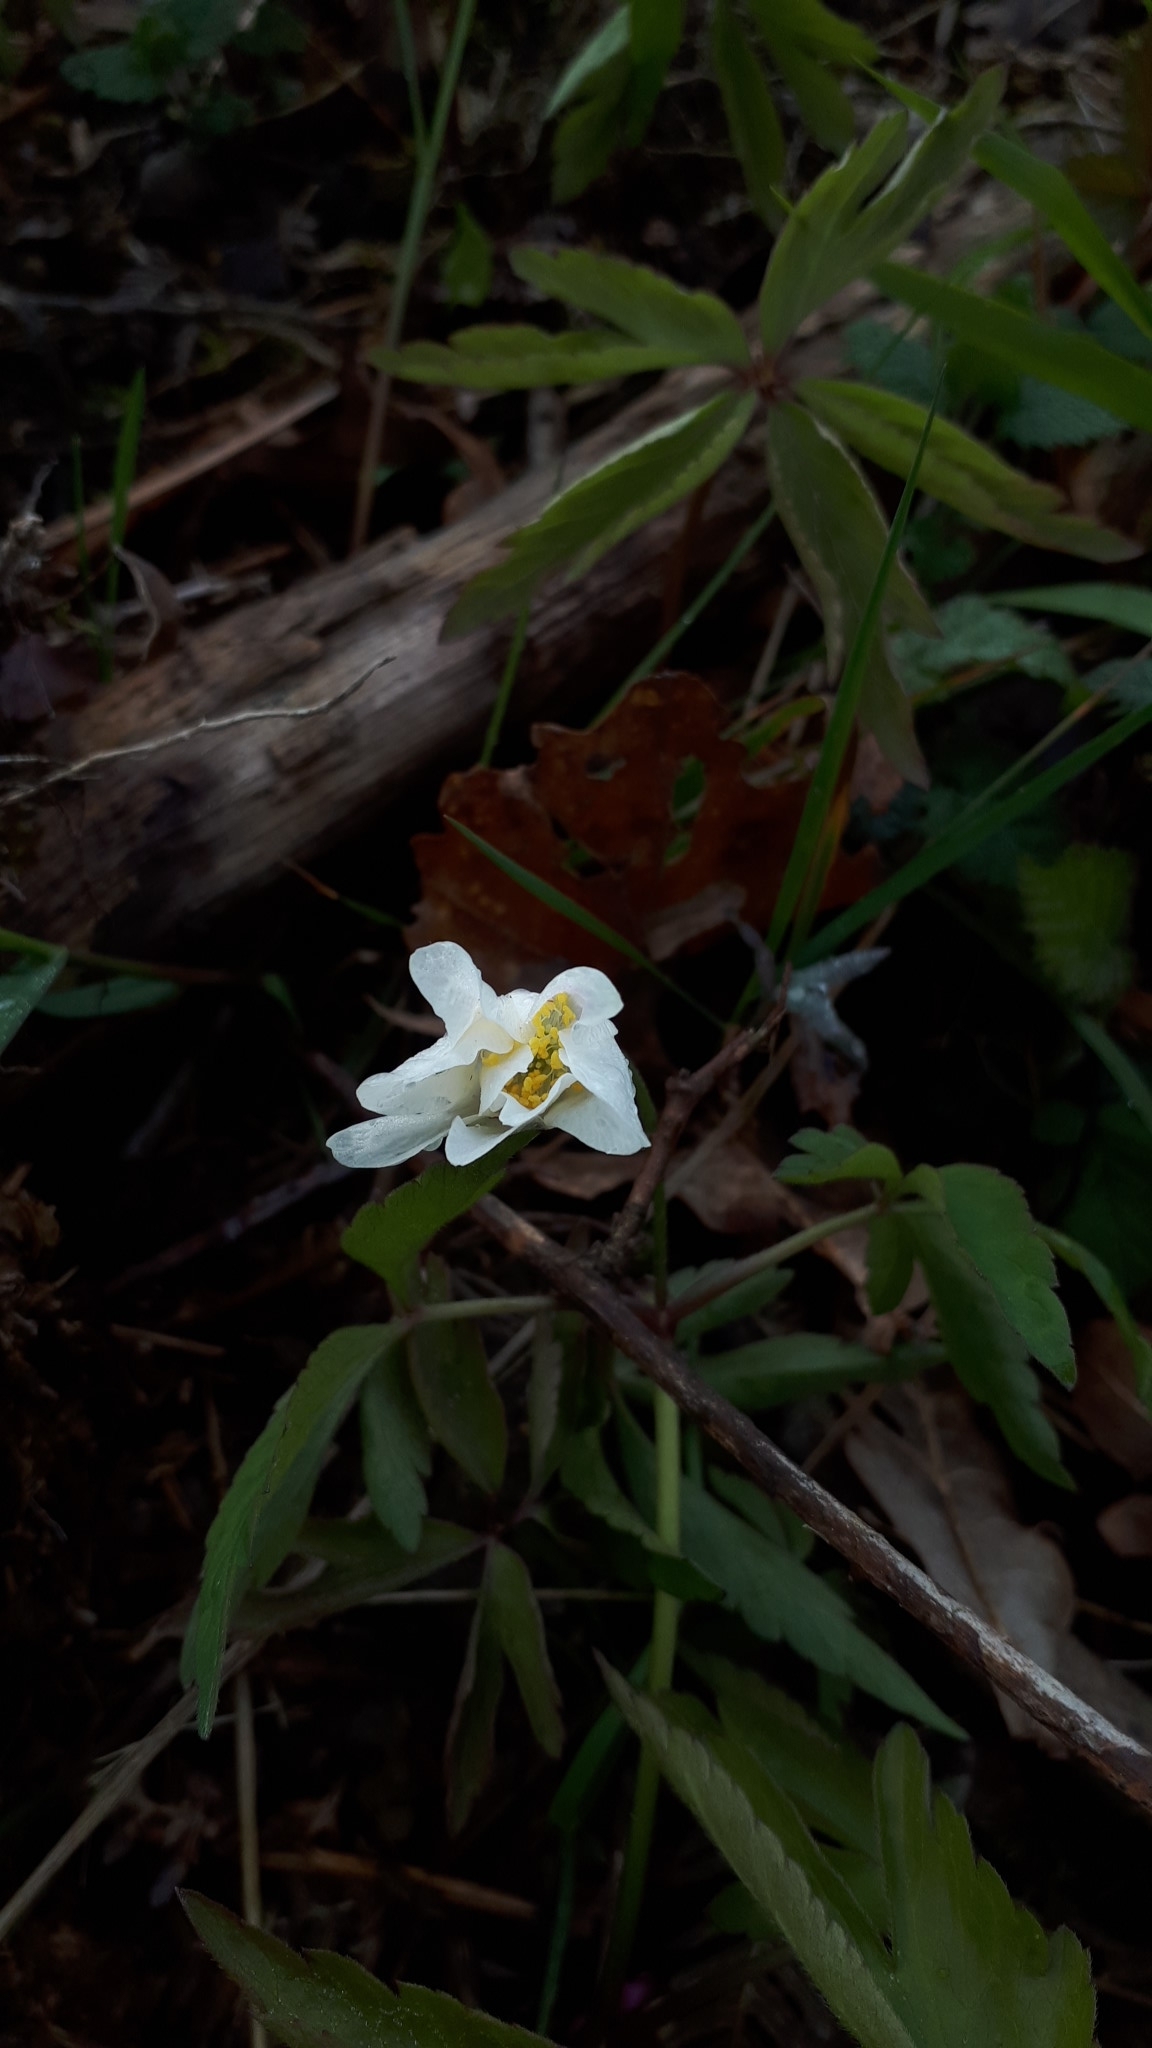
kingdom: Plantae
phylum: Tracheophyta
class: Magnoliopsida
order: Ranunculales
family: Ranunculaceae
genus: Anemone
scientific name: Anemone nemorosa
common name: Wood anemone
